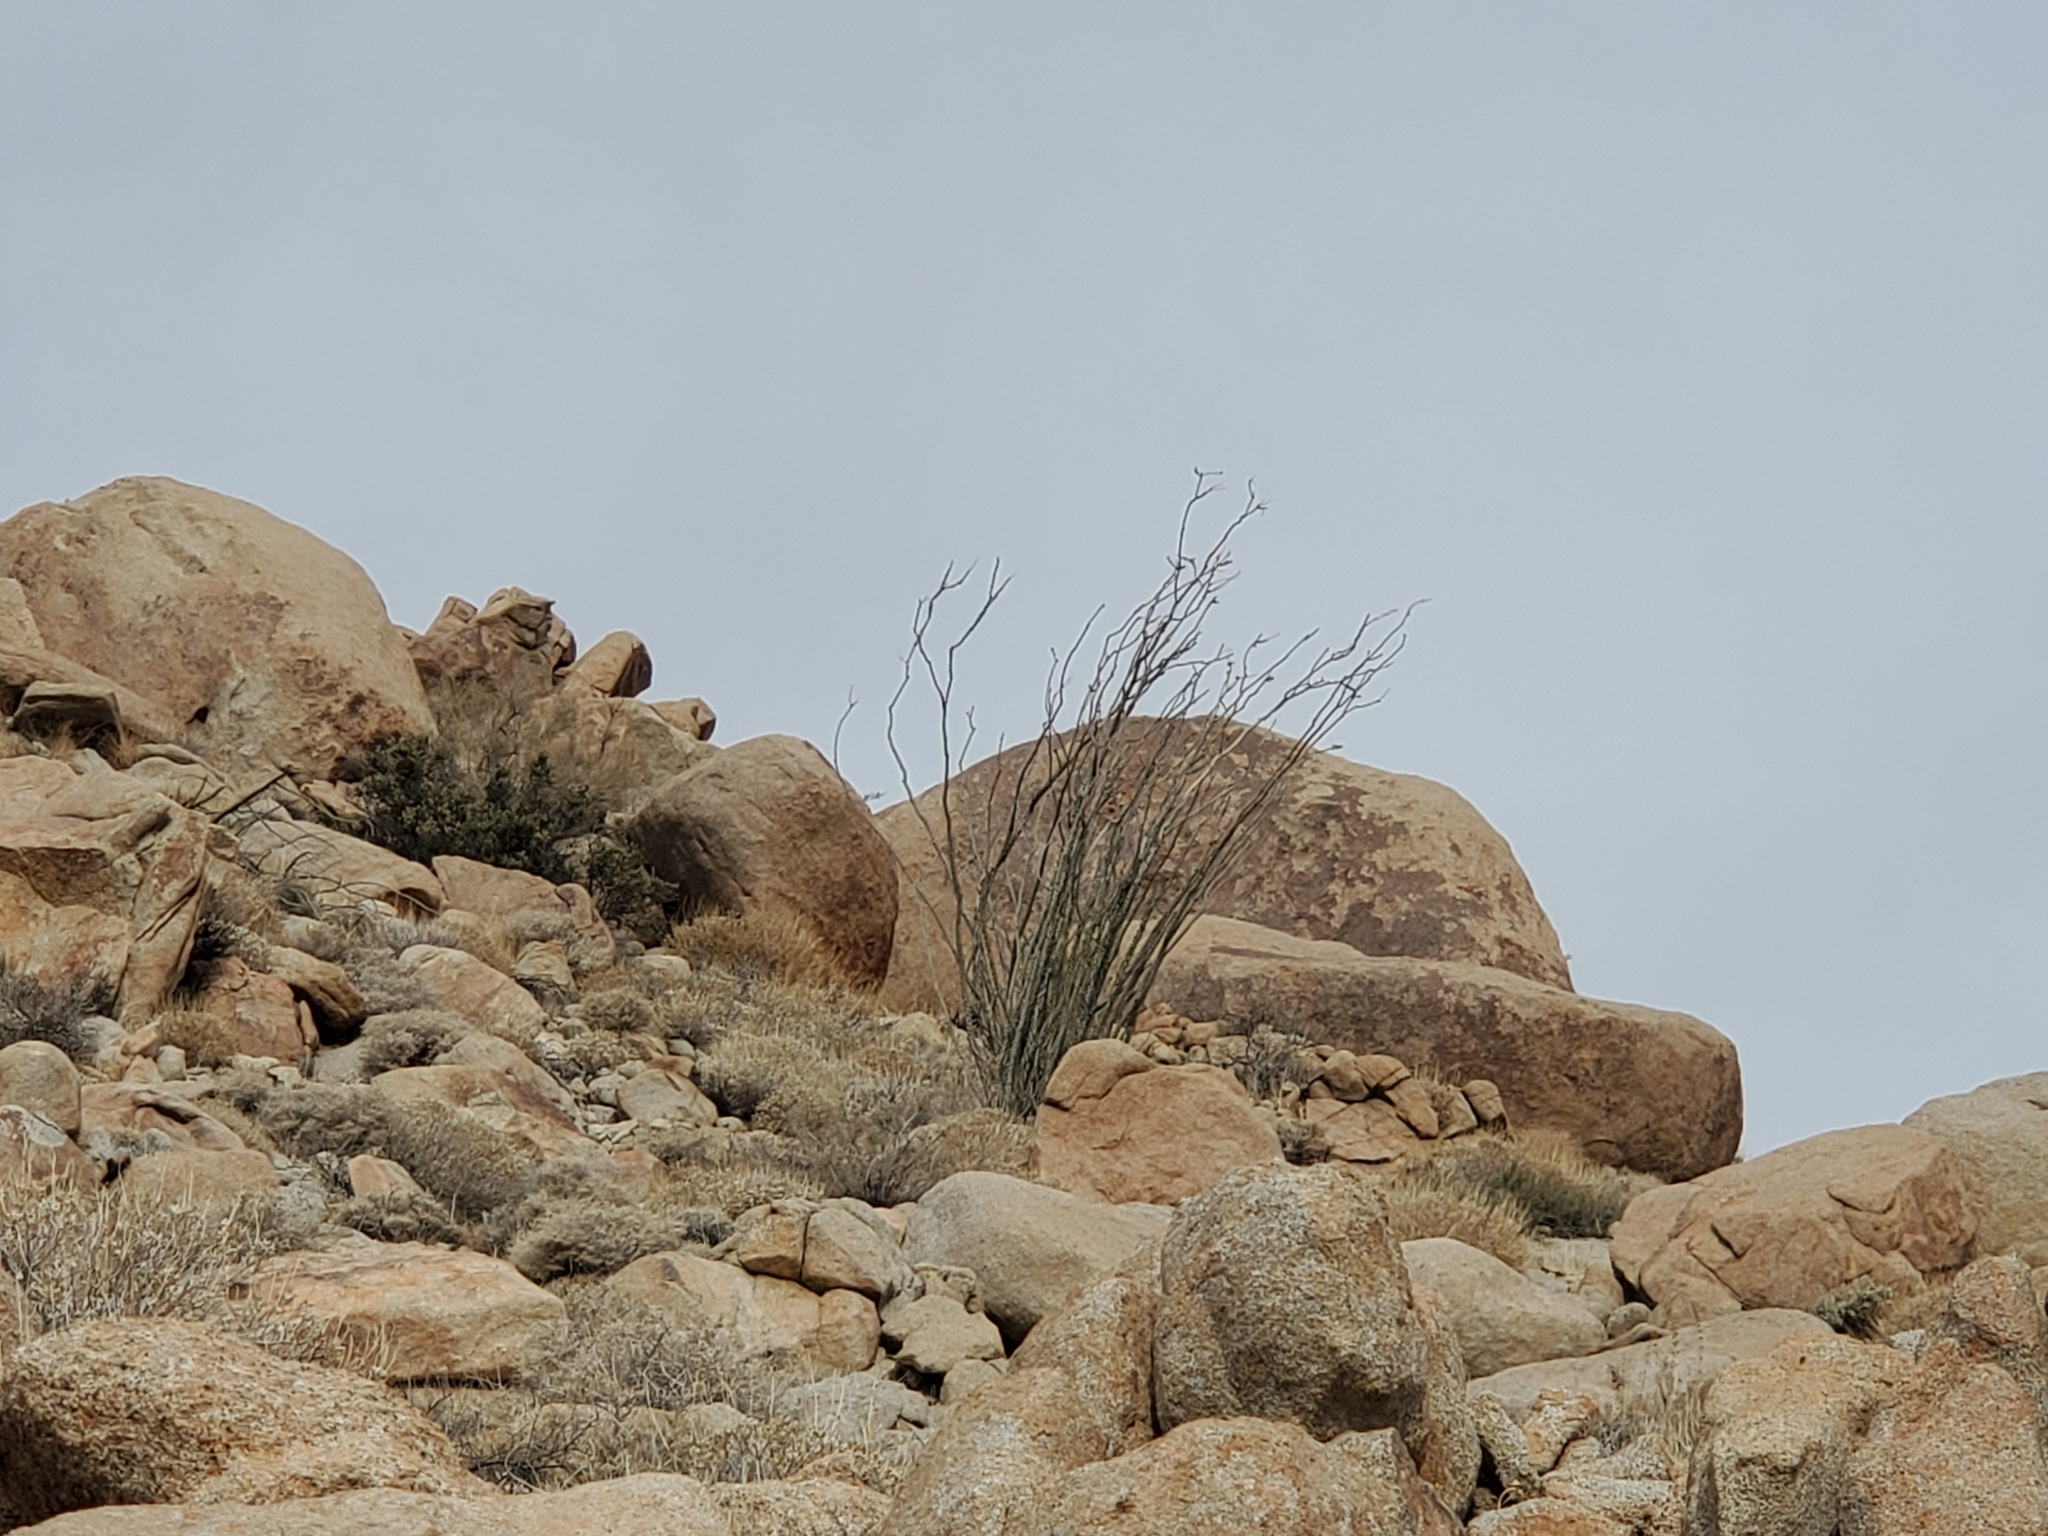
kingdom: Plantae
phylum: Tracheophyta
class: Magnoliopsida
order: Ericales
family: Fouquieriaceae
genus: Fouquieria
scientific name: Fouquieria splendens
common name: Vine-cactus
